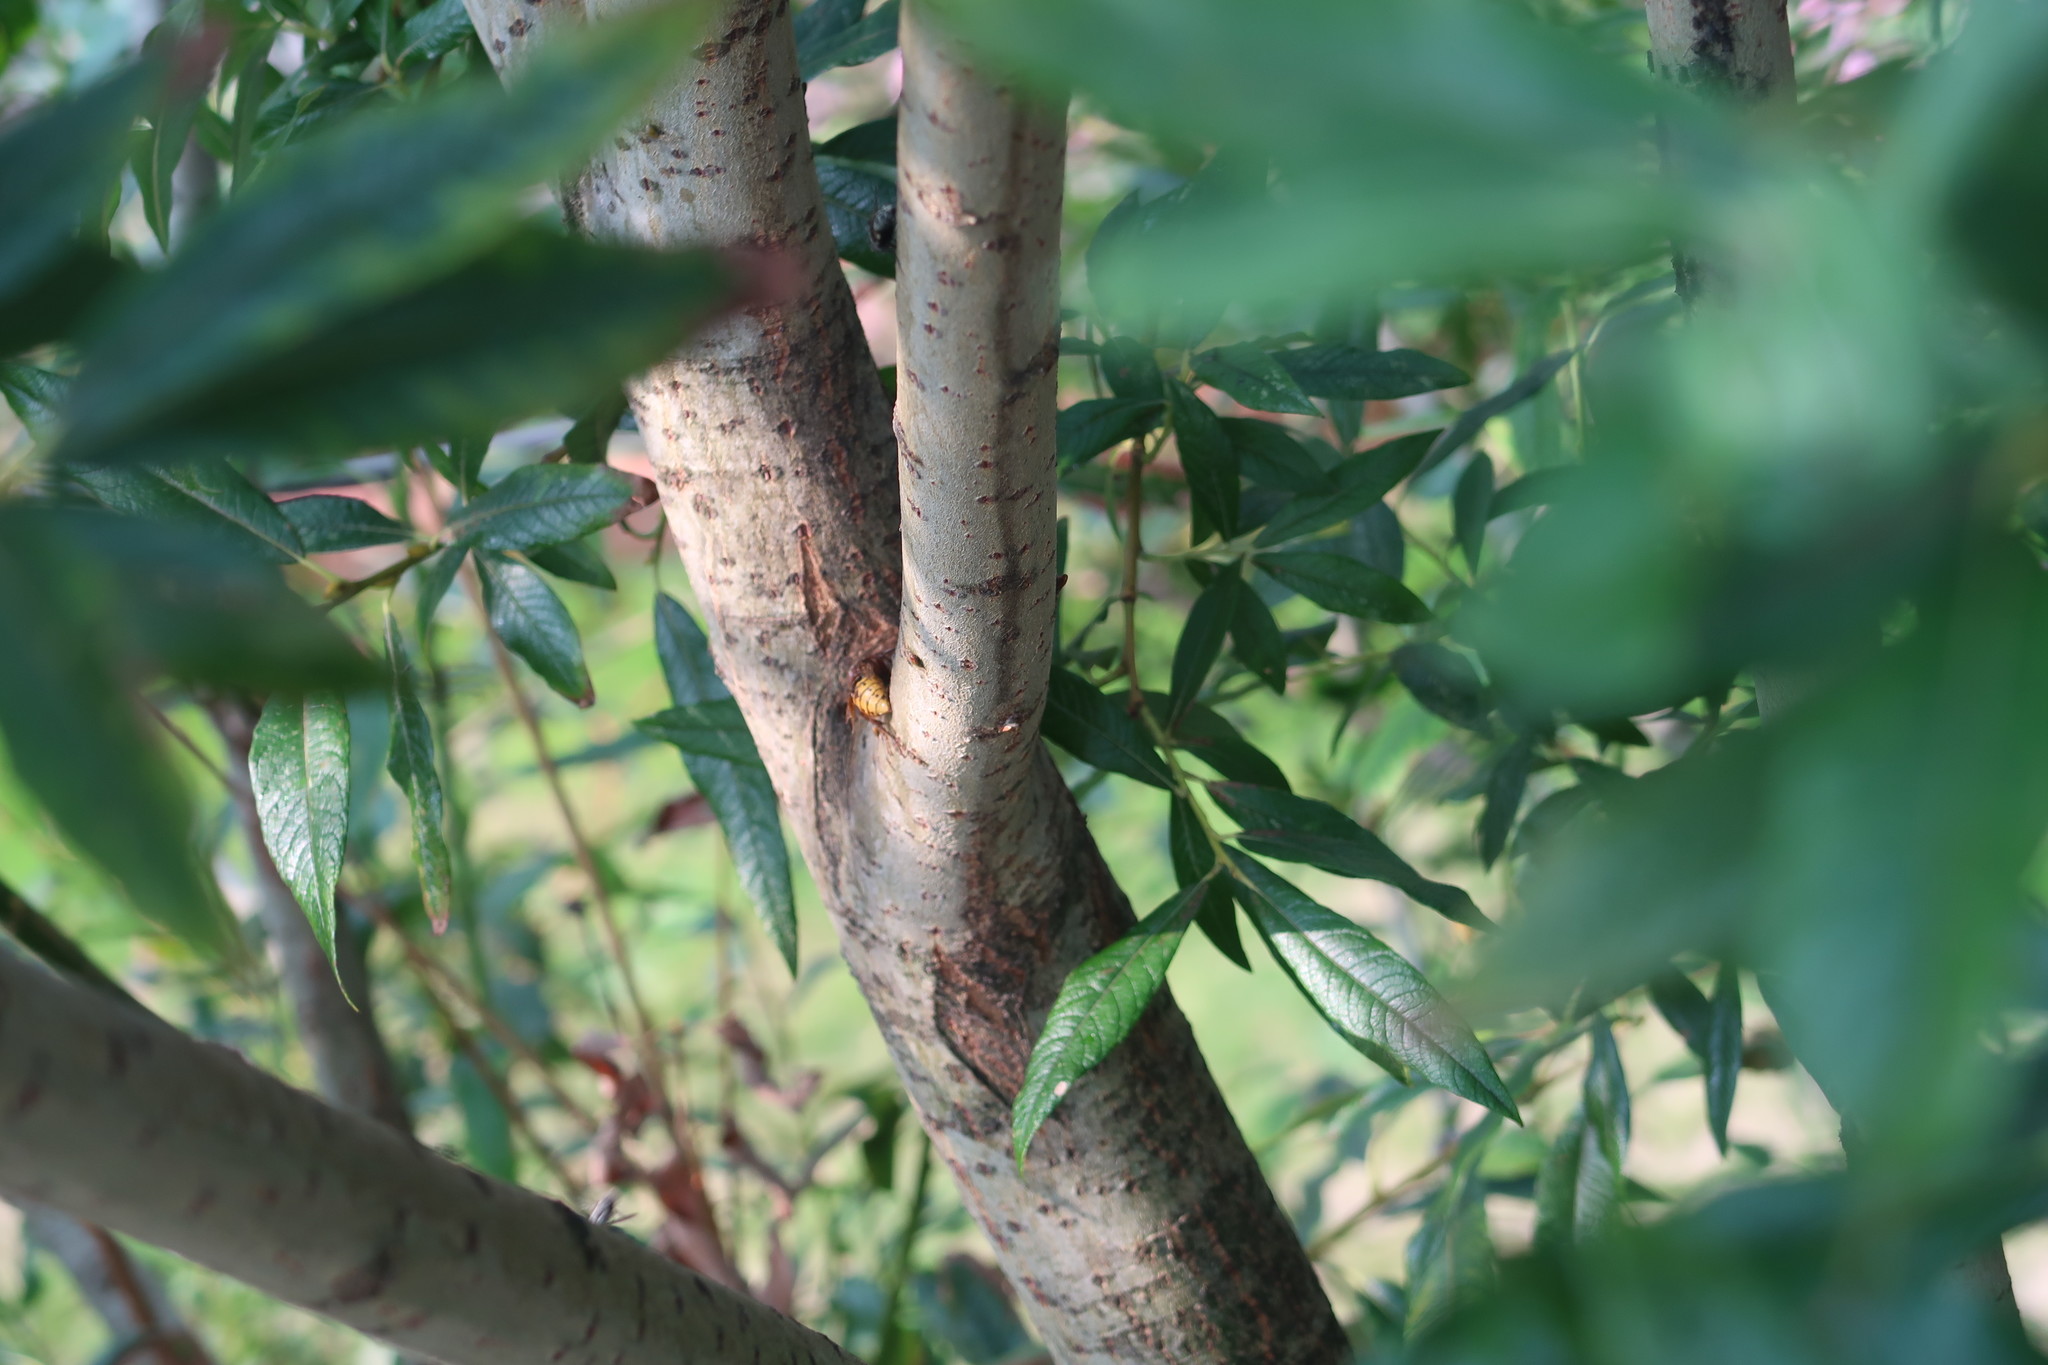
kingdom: Animalia
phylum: Arthropoda
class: Insecta
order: Hymenoptera
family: Vespidae
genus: Vespa
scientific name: Vespa crabro
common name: Hornet
